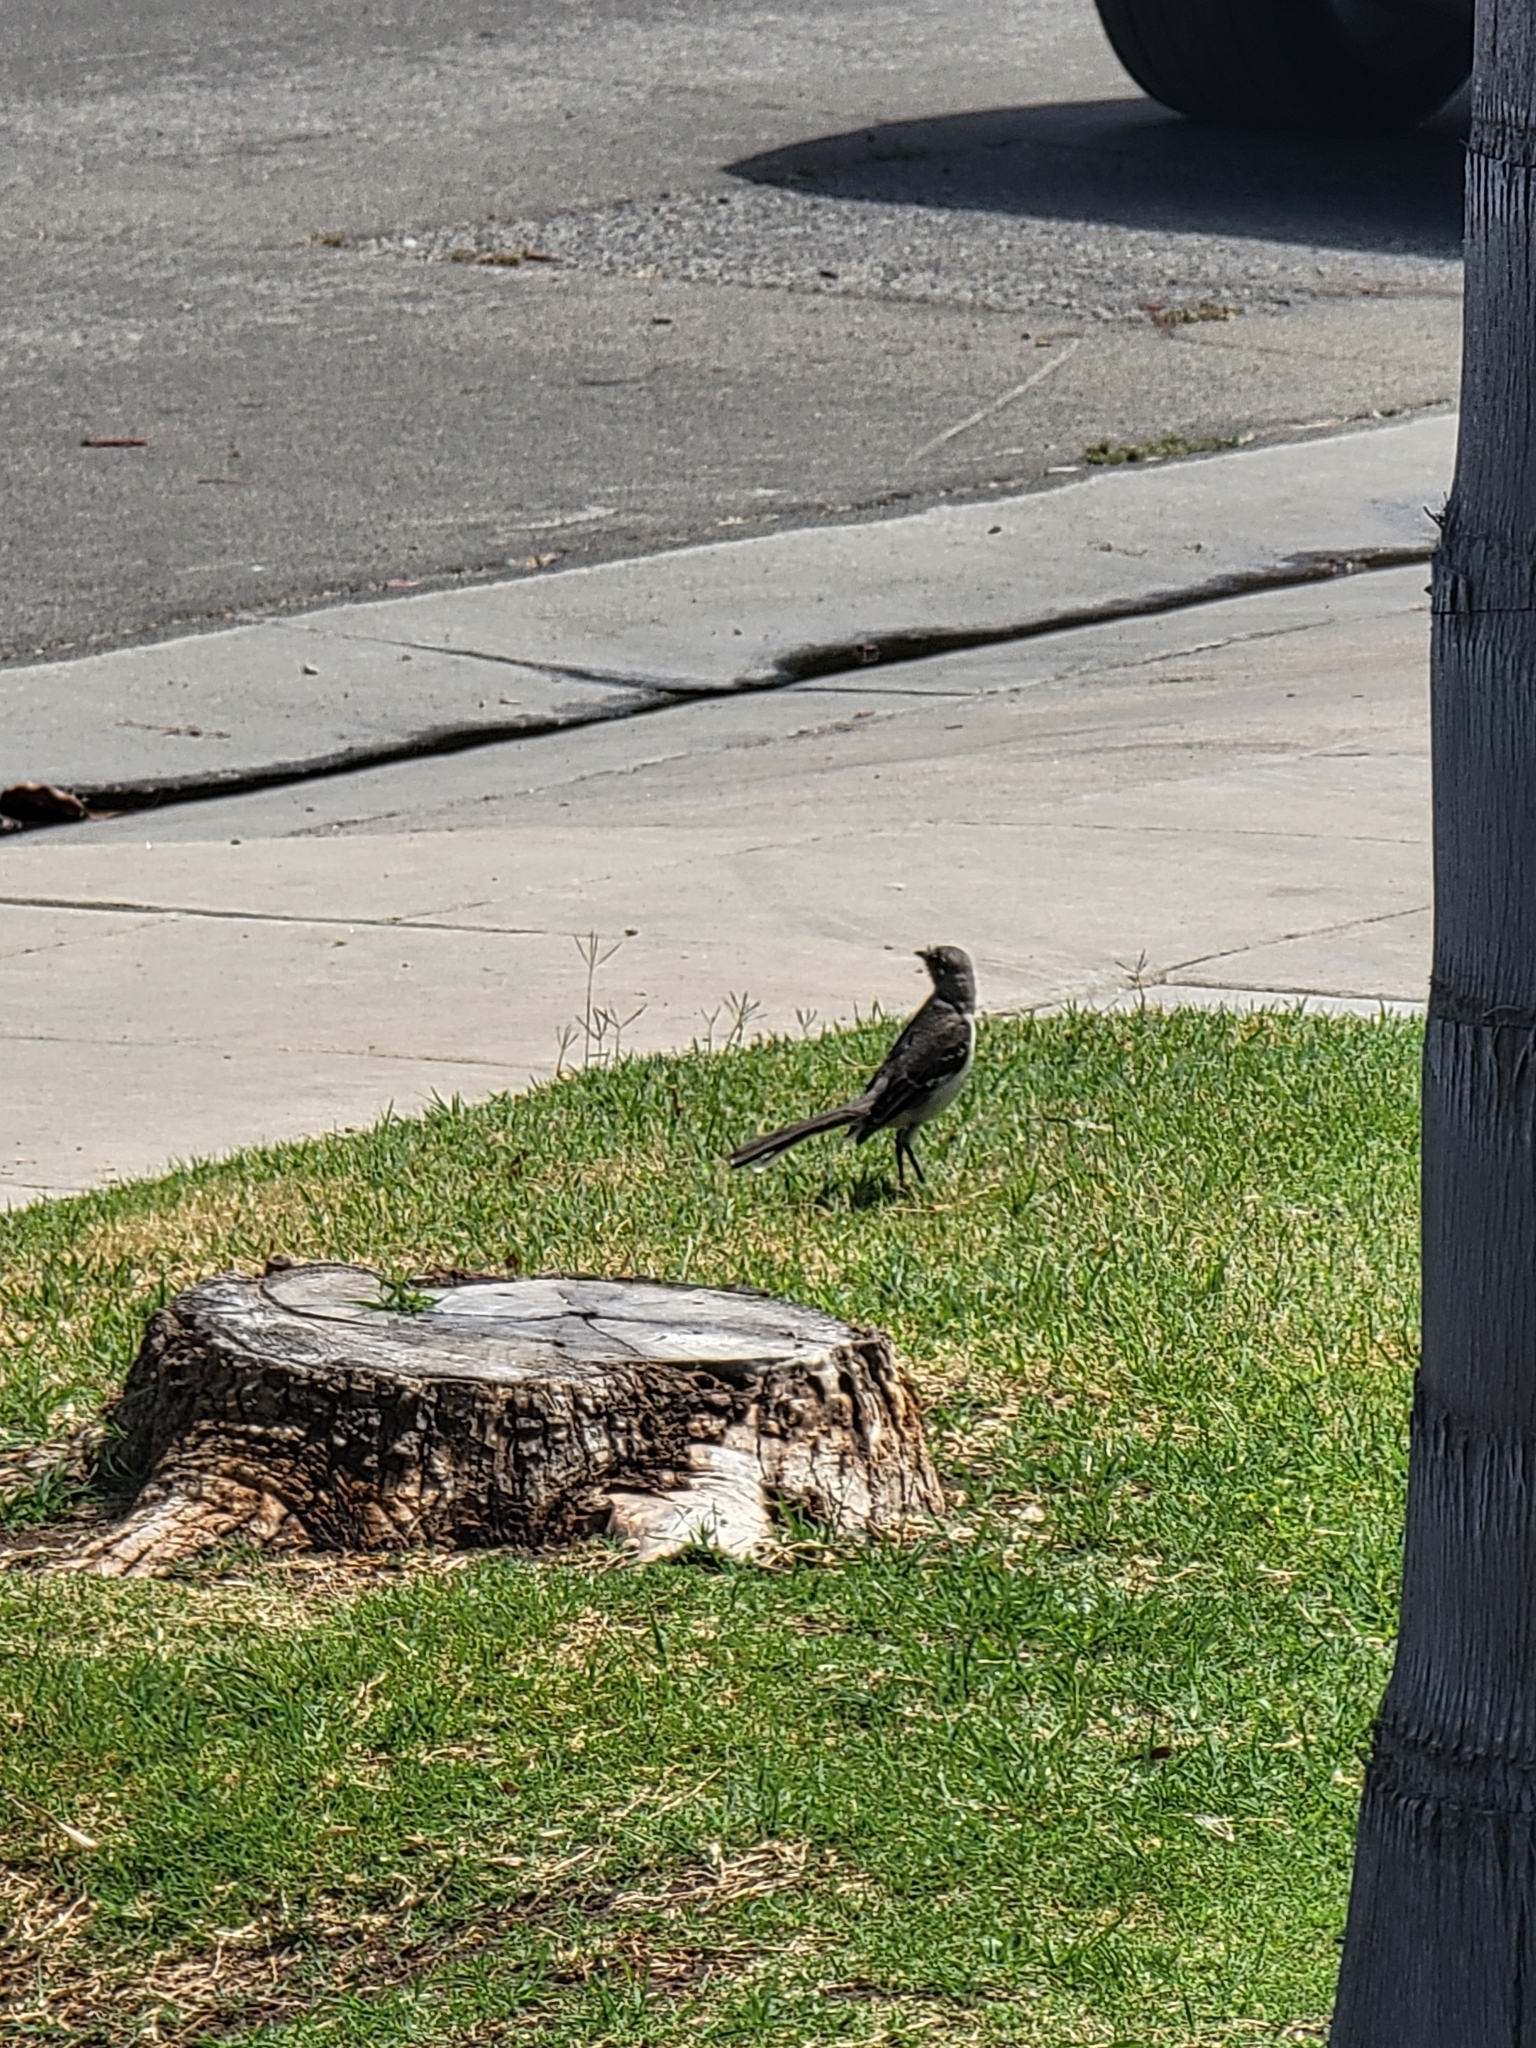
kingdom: Animalia
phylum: Chordata
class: Aves
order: Passeriformes
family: Mimidae
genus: Mimus
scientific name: Mimus polyglottos
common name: Northern mockingbird
